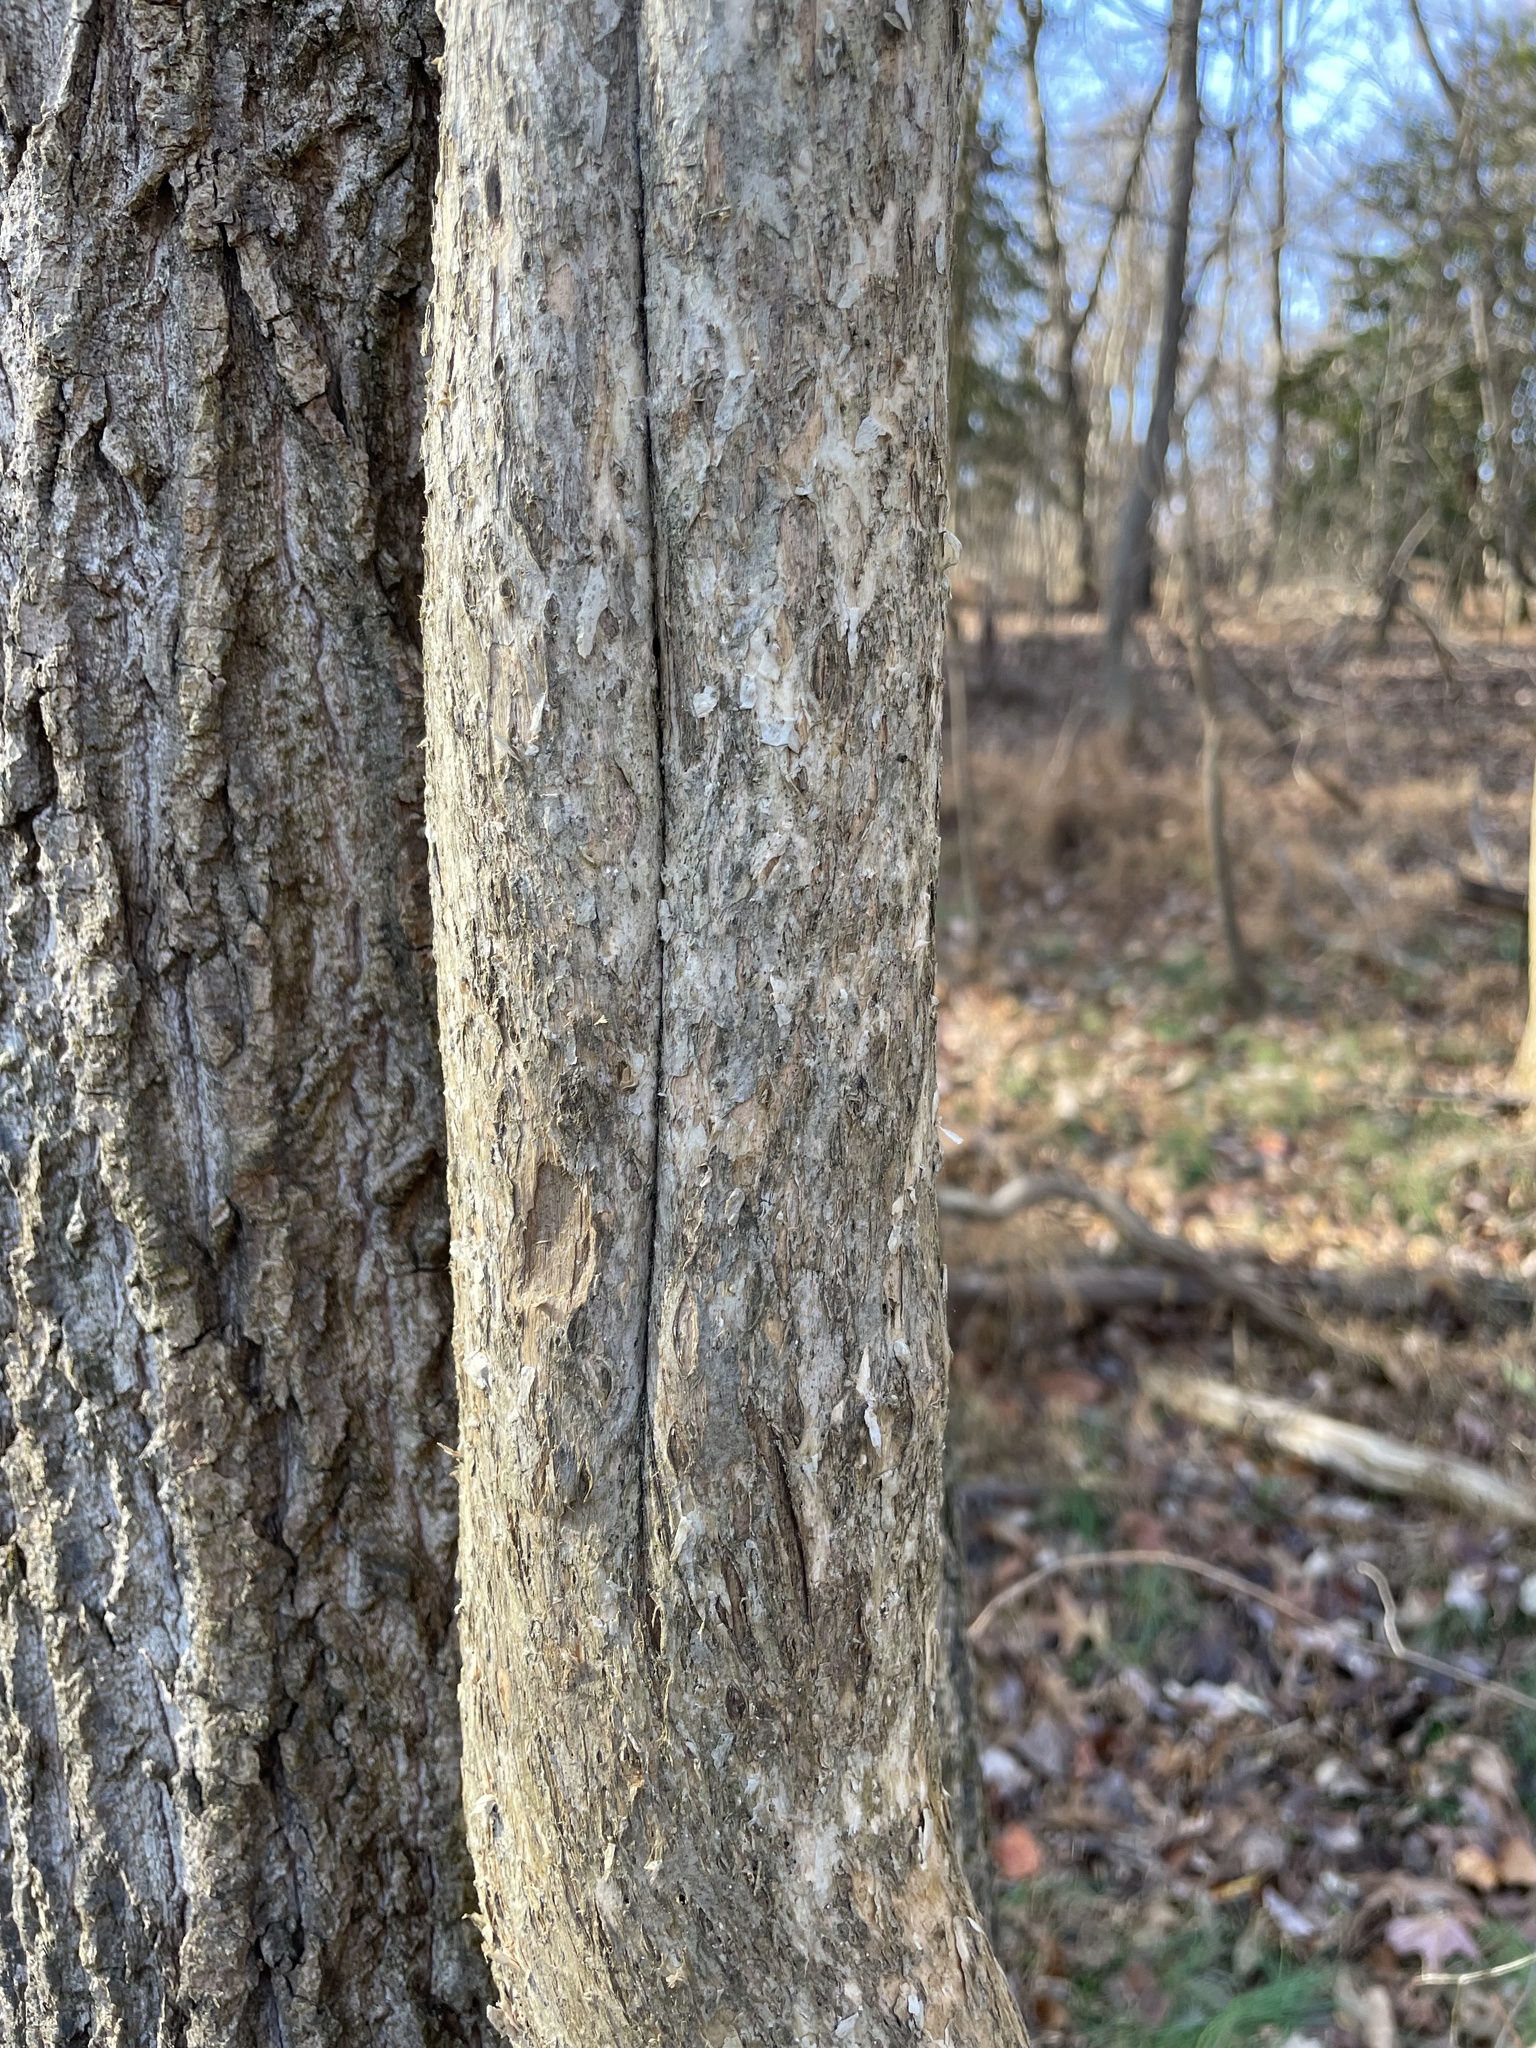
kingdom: Plantae
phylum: Tracheophyta
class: Magnoliopsida
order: Lamiales
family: Bignoniaceae
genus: Campsis
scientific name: Campsis radicans
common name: Trumpet-creeper
